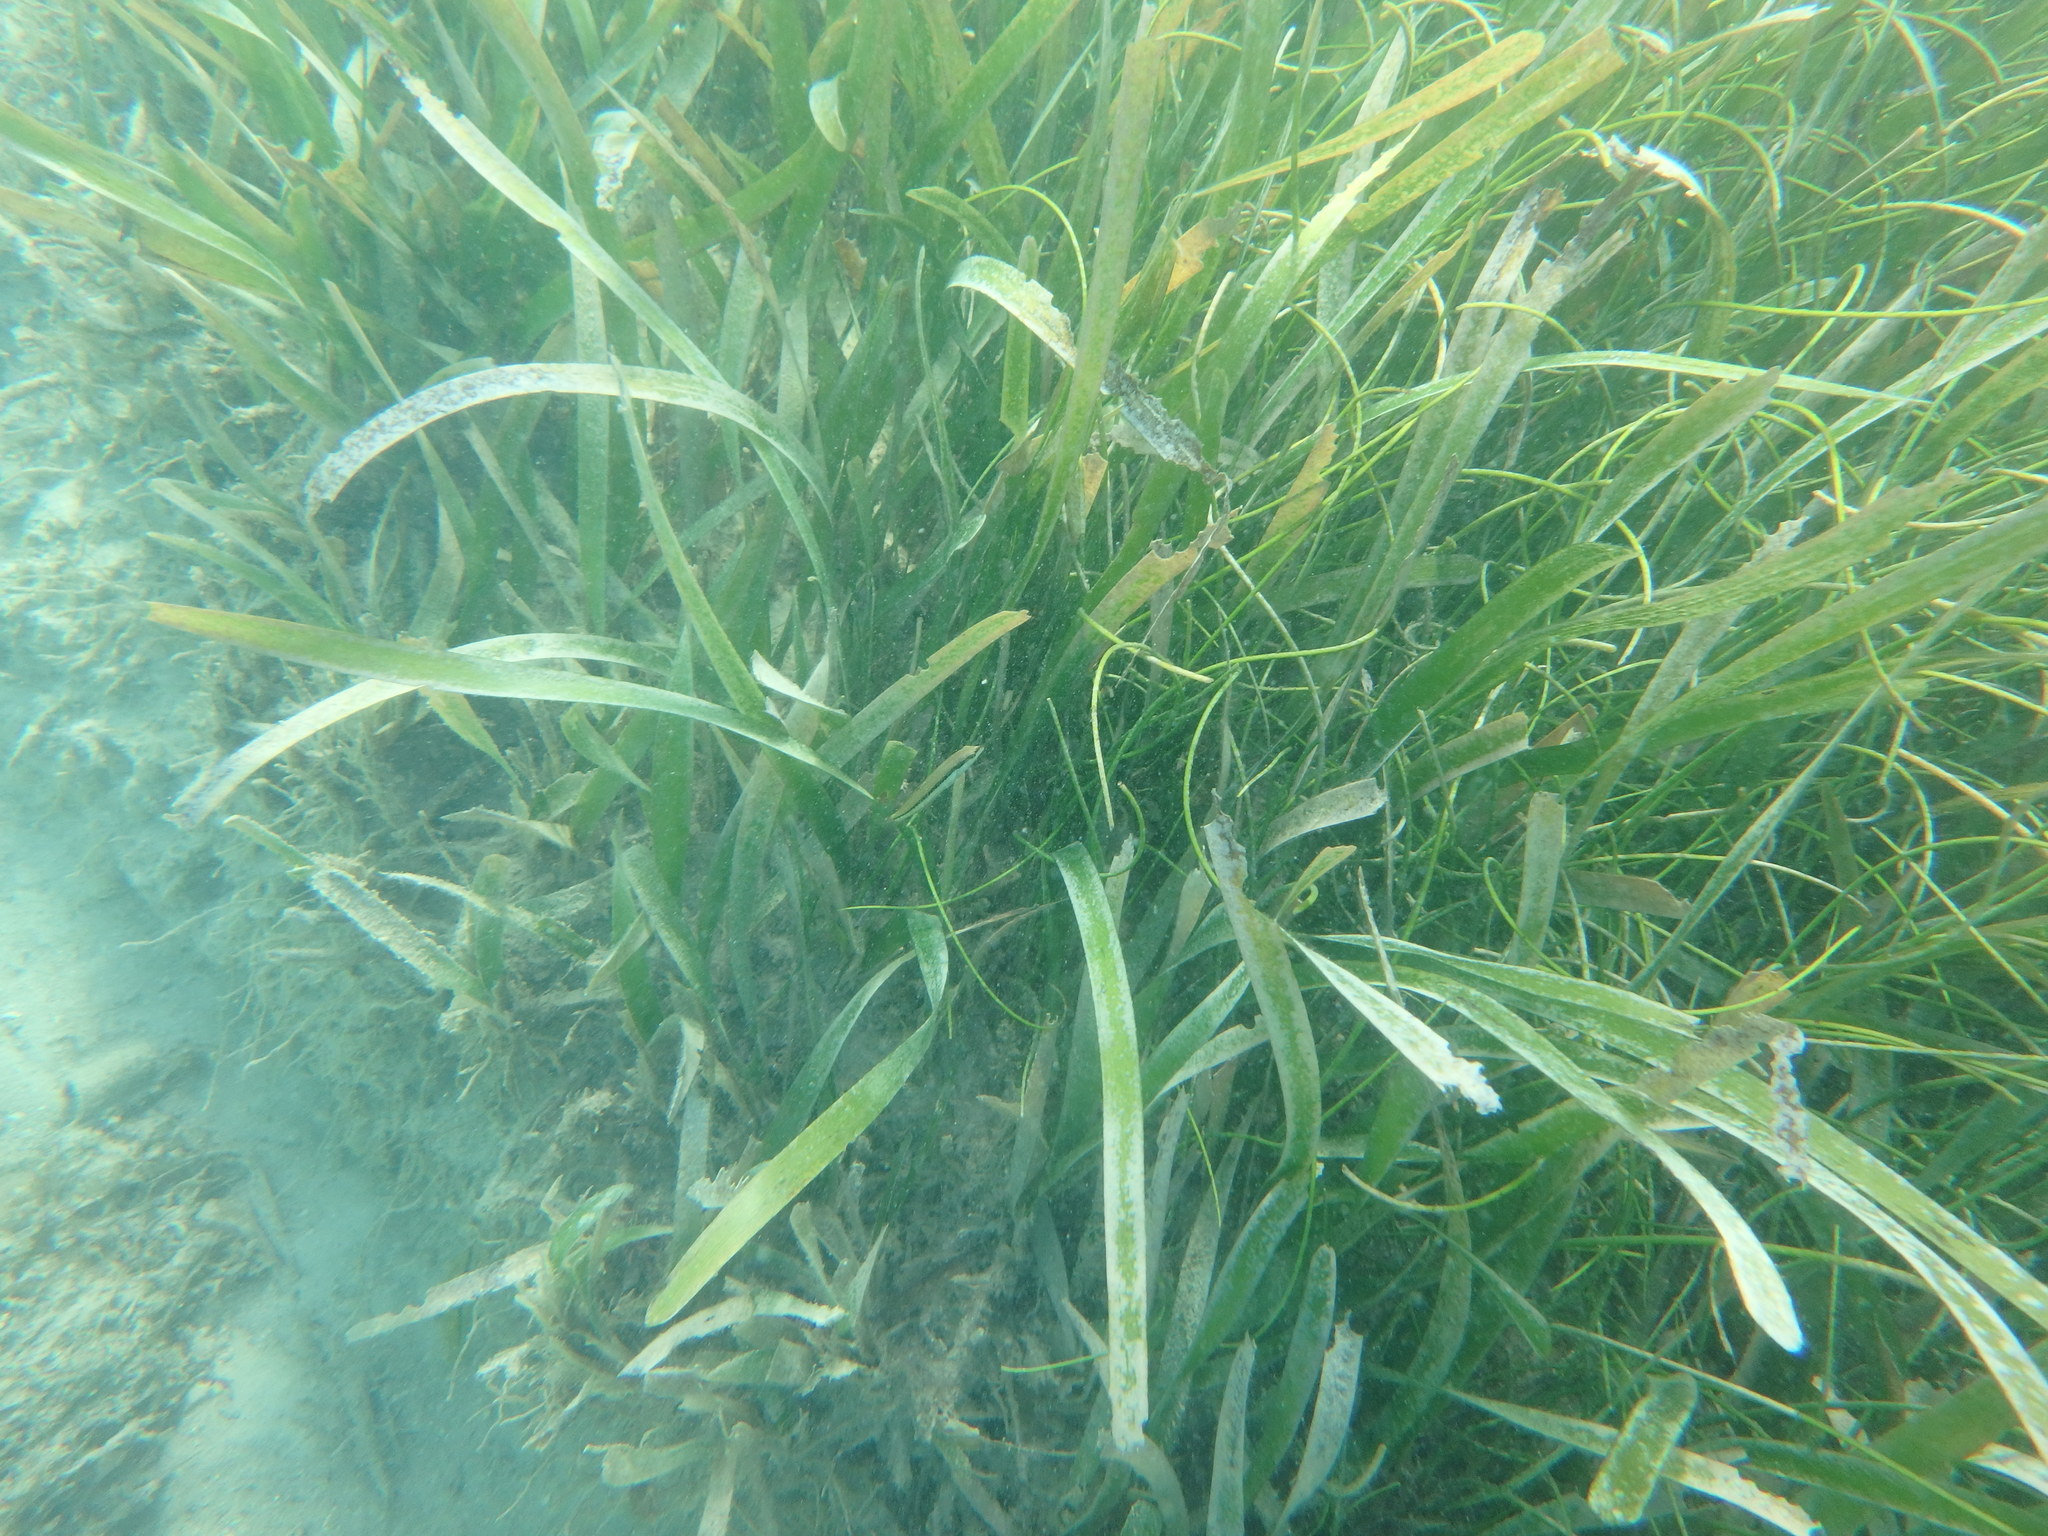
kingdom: Plantae
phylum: Tracheophyta
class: Liliopsida
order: Alismatales
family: Hydrocharitaceae
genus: Thalassia
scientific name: Thalassia testudinum
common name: Species code: tt
